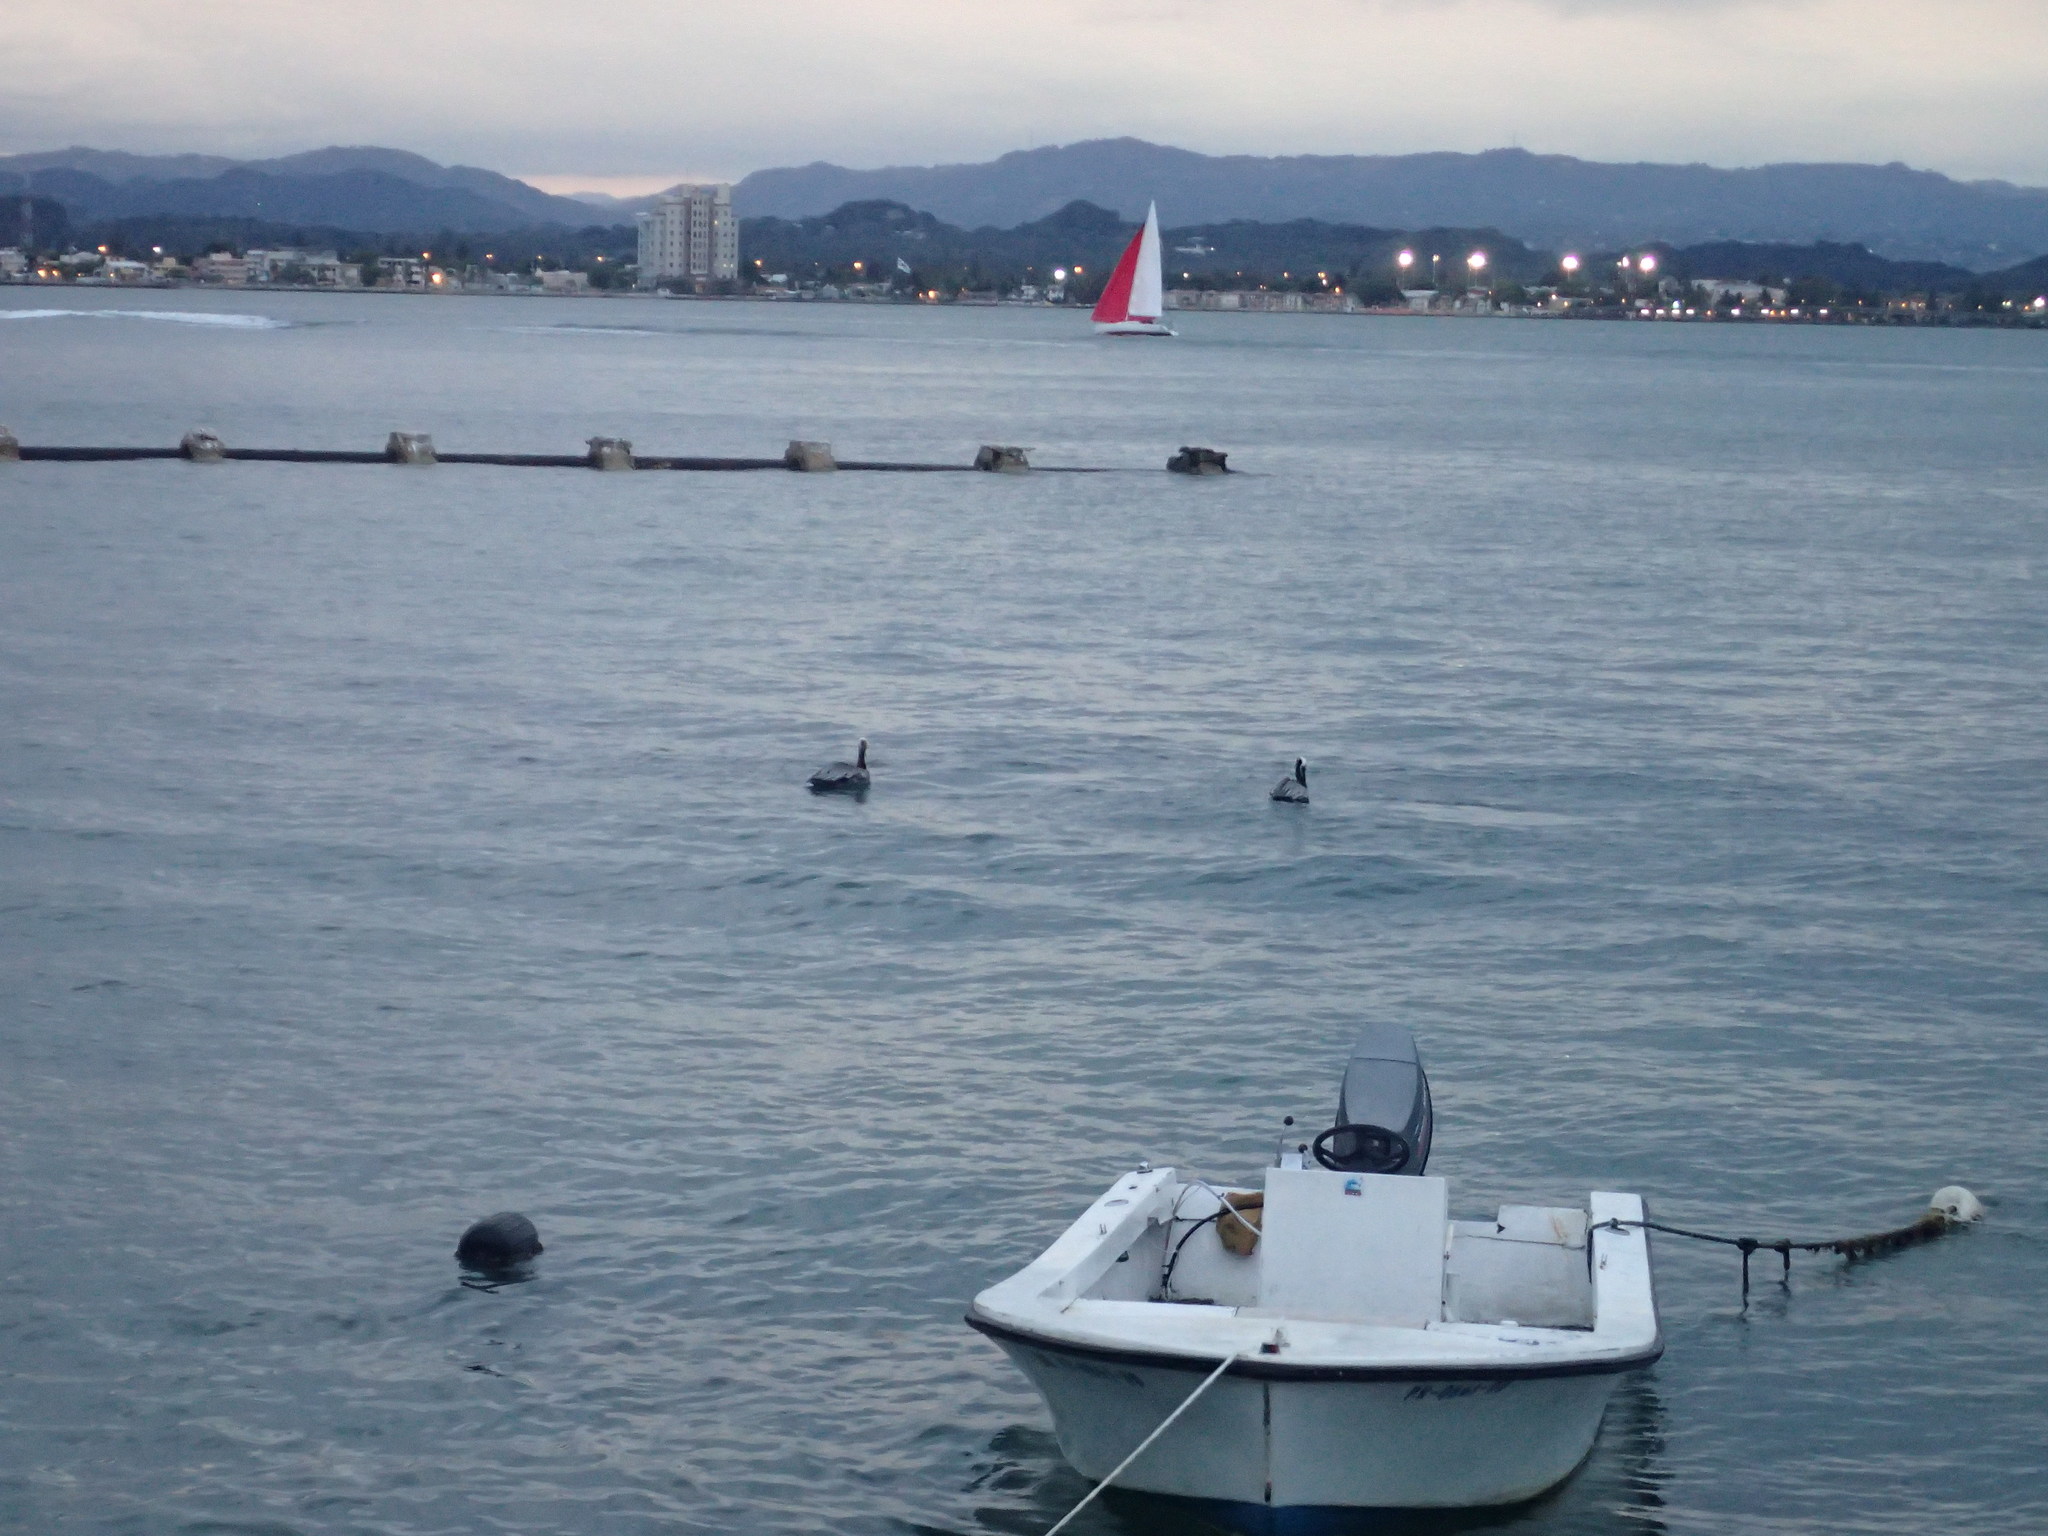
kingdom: Animalia
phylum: Chordata
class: Aves
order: Pelecaniformes
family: Pelecanidae
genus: Pelecanus
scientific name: Pelecanus occidentalis
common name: Brown pelican
